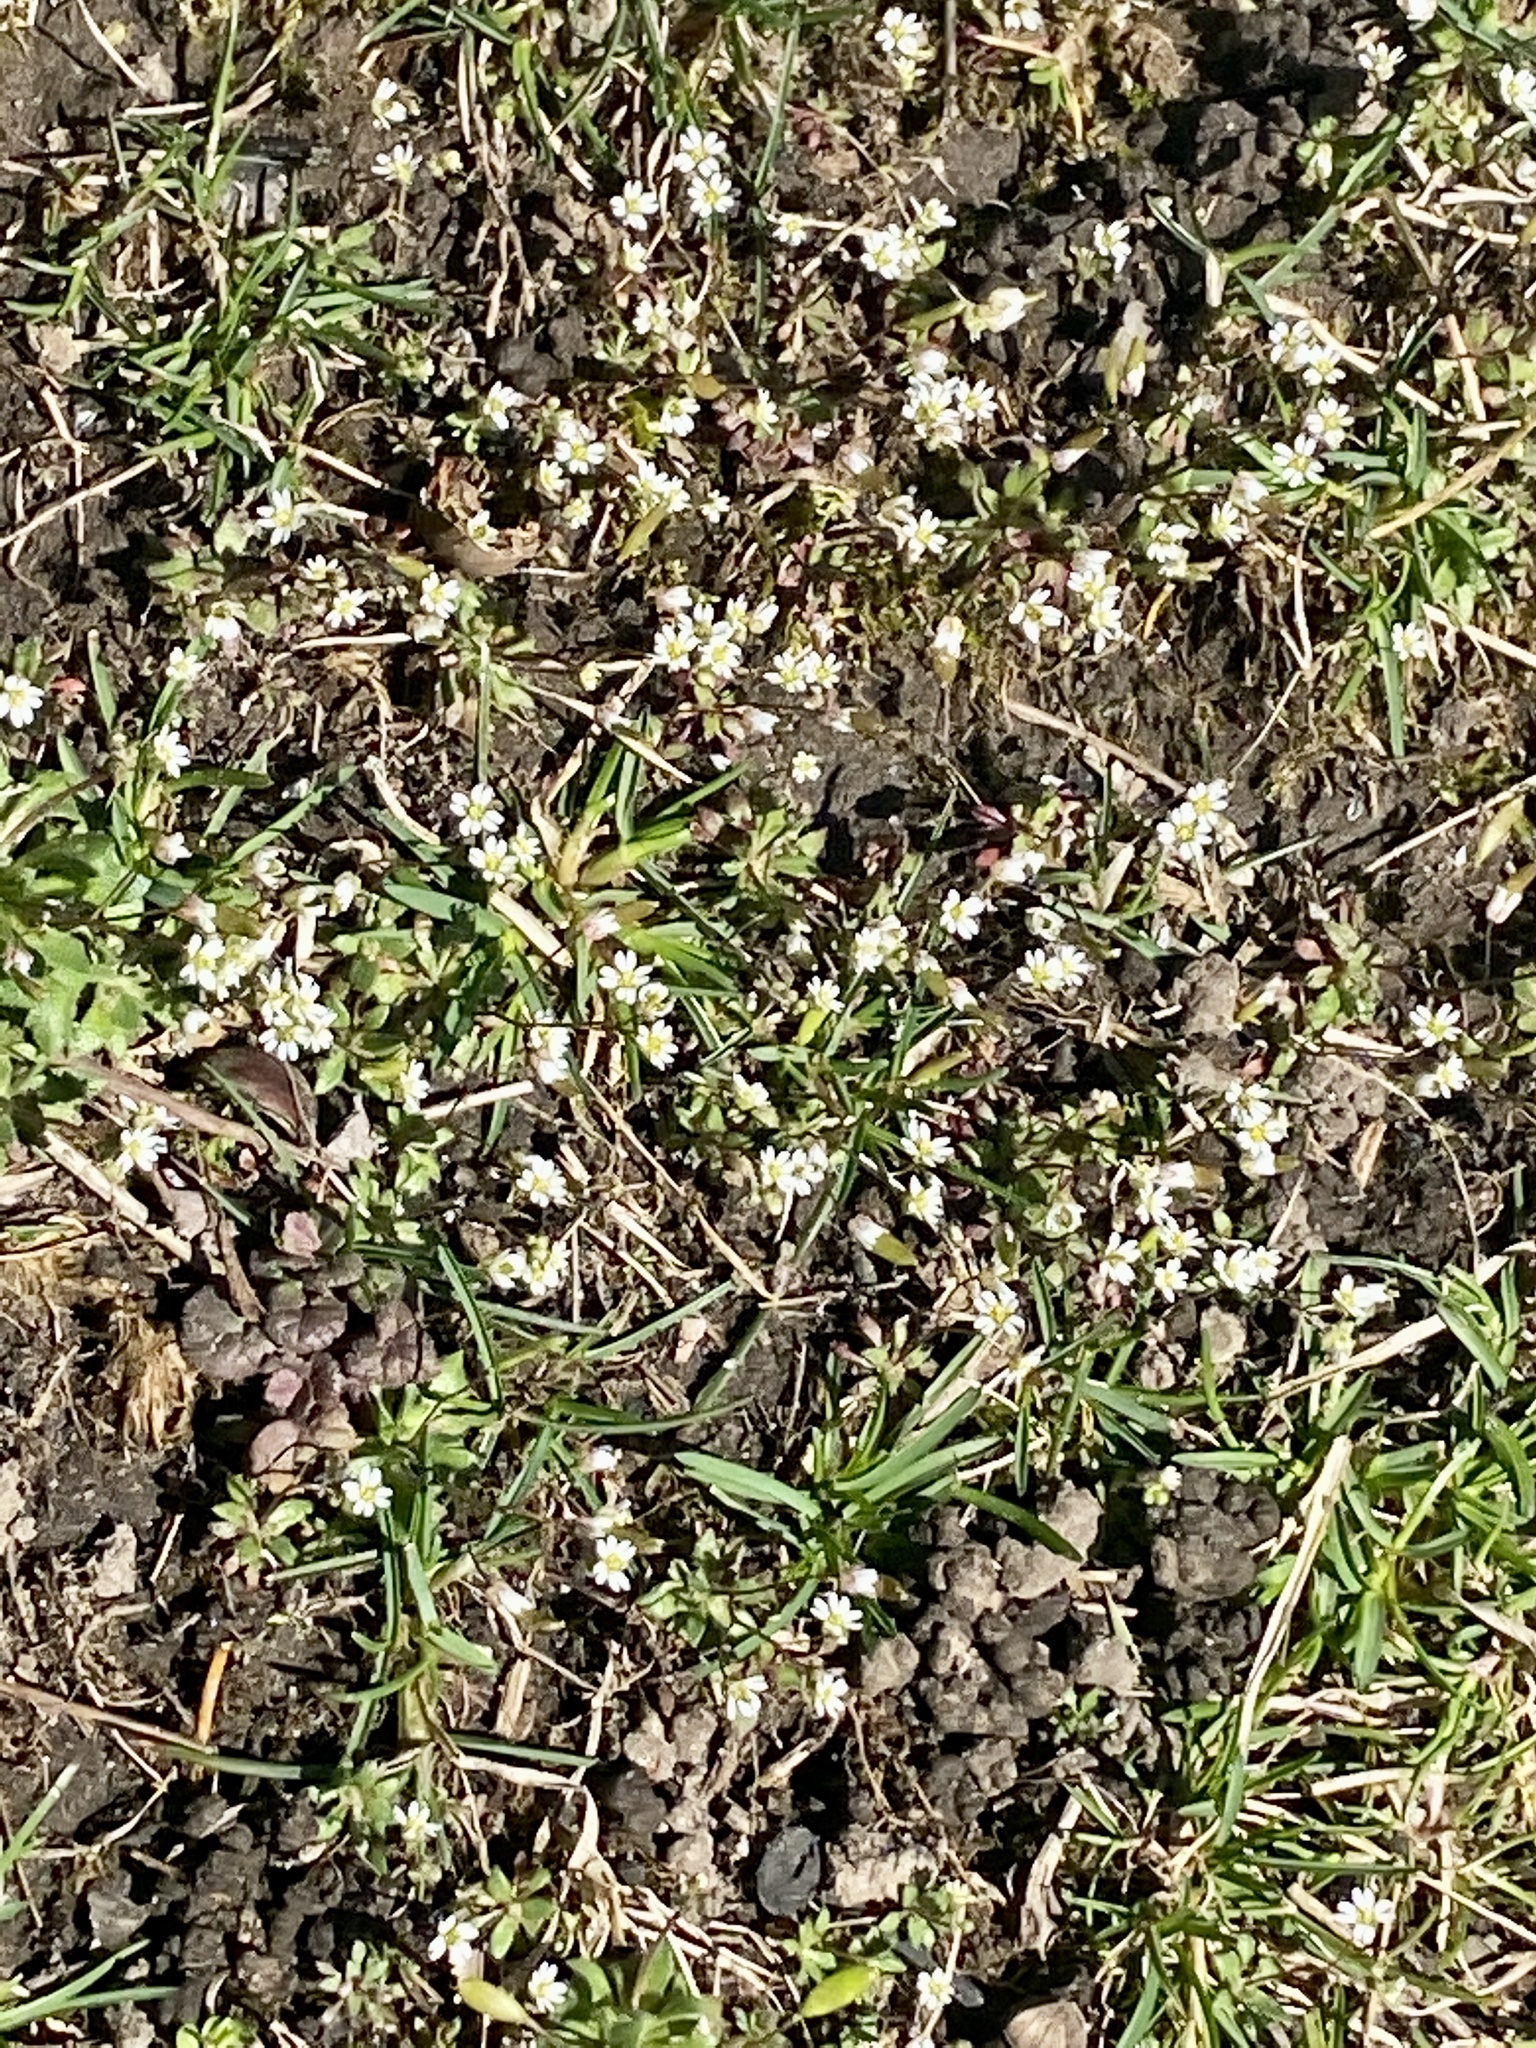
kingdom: Plantae
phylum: Tracheophyta
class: Magnoliopsida
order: Brassicales
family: Brassicaceae
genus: Draba
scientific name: Draba verna
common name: Spring draba
